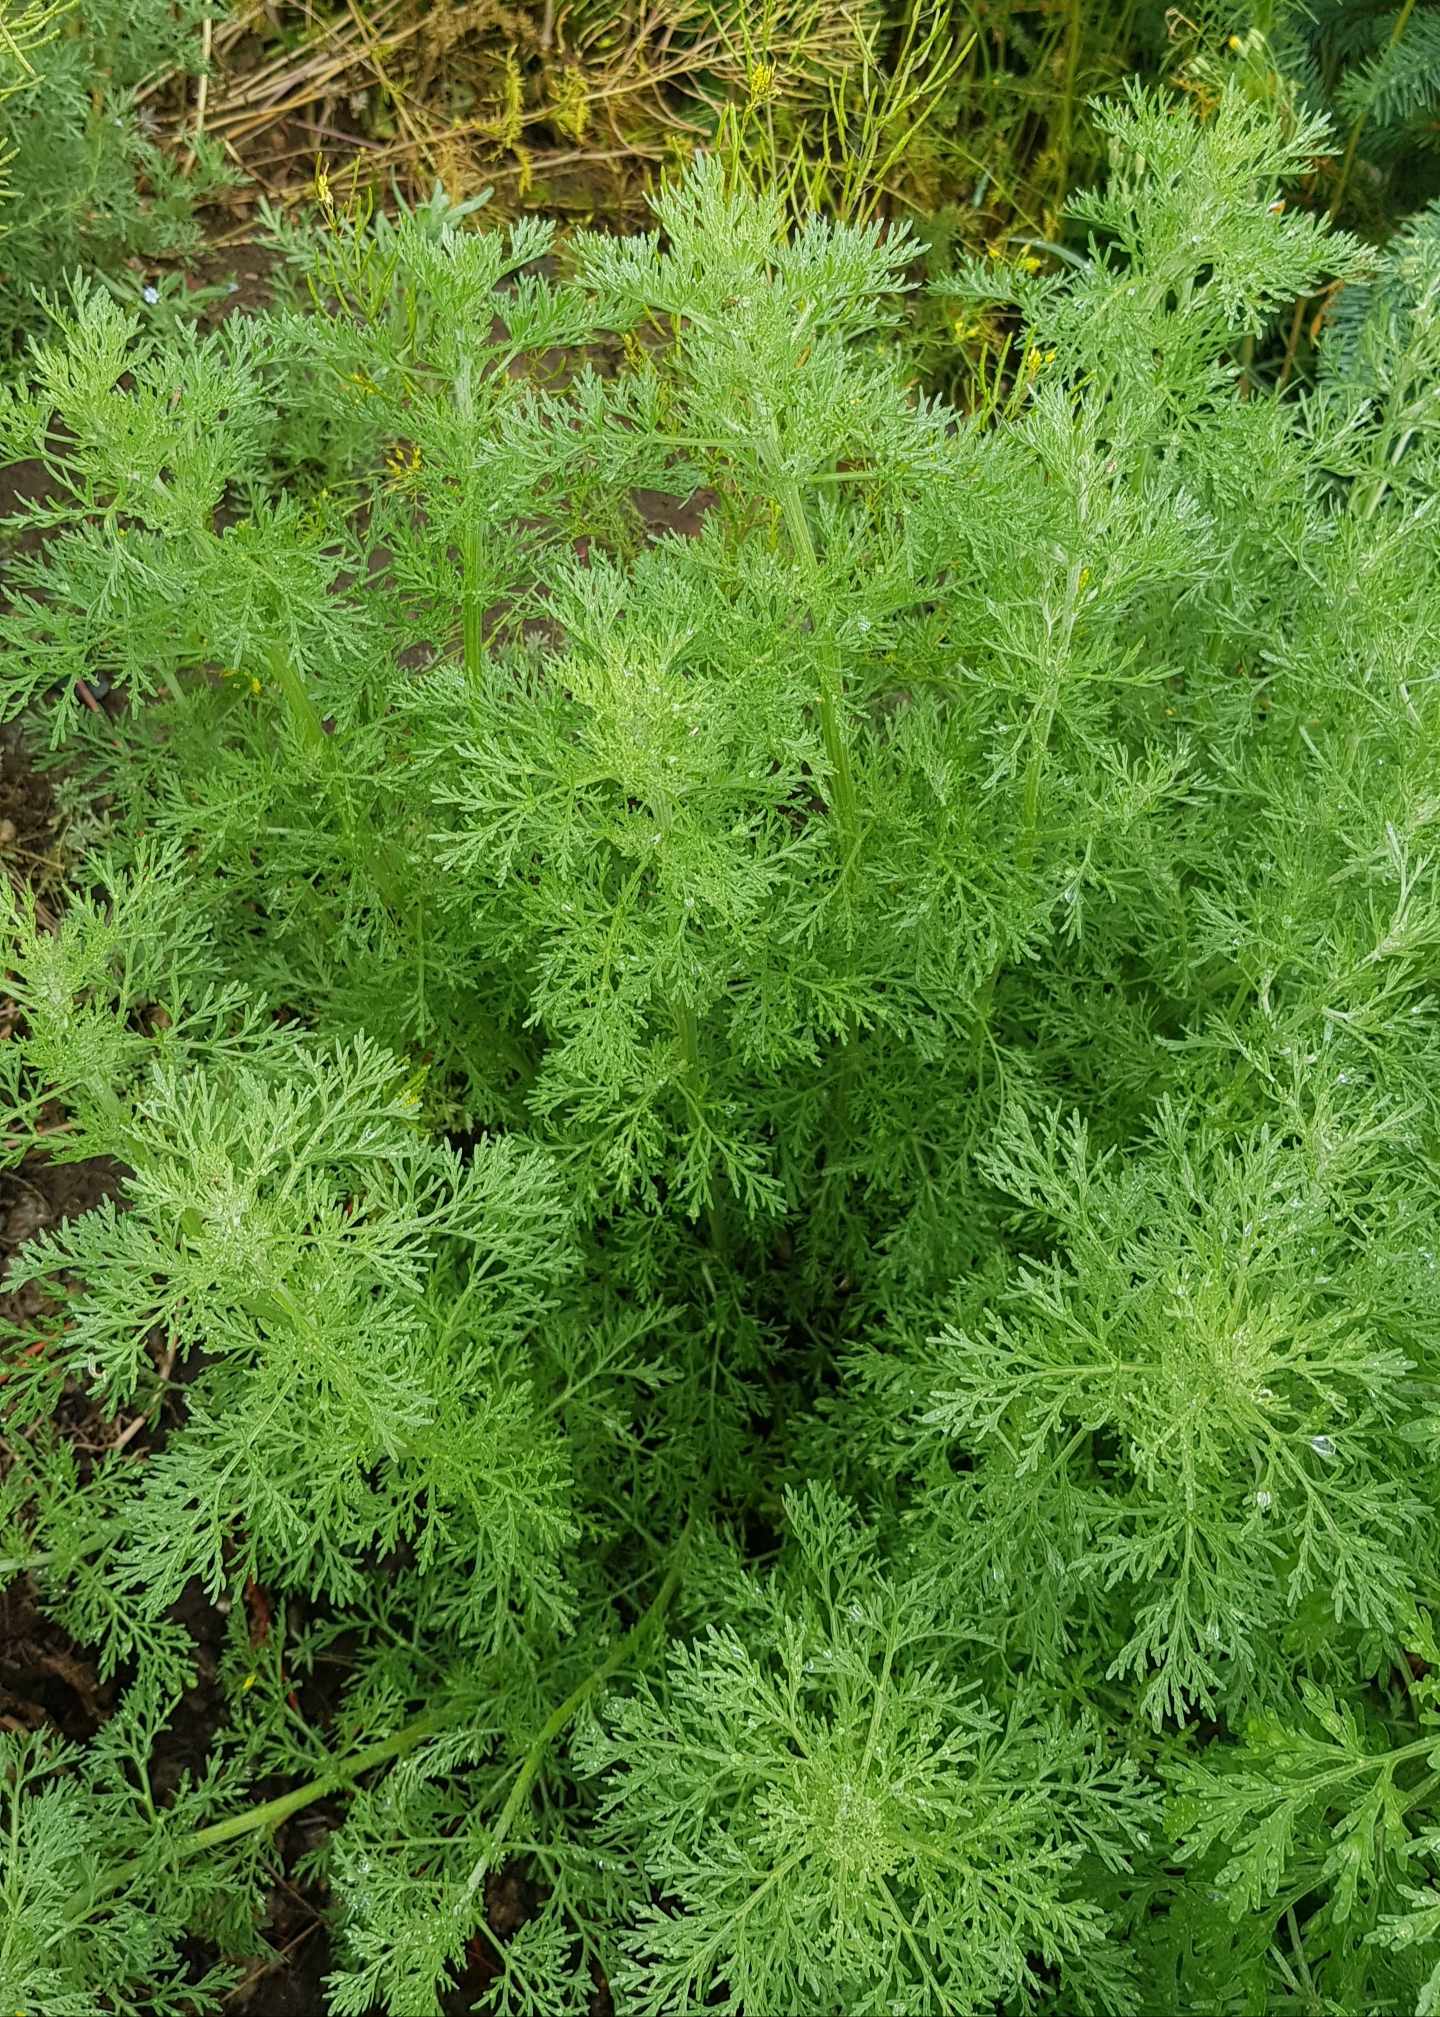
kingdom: Plantae
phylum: Tracheophyta
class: Magnoliopsida
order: Asterales
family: Asteraceae
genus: Artemisia
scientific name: Artemisia adamsii
